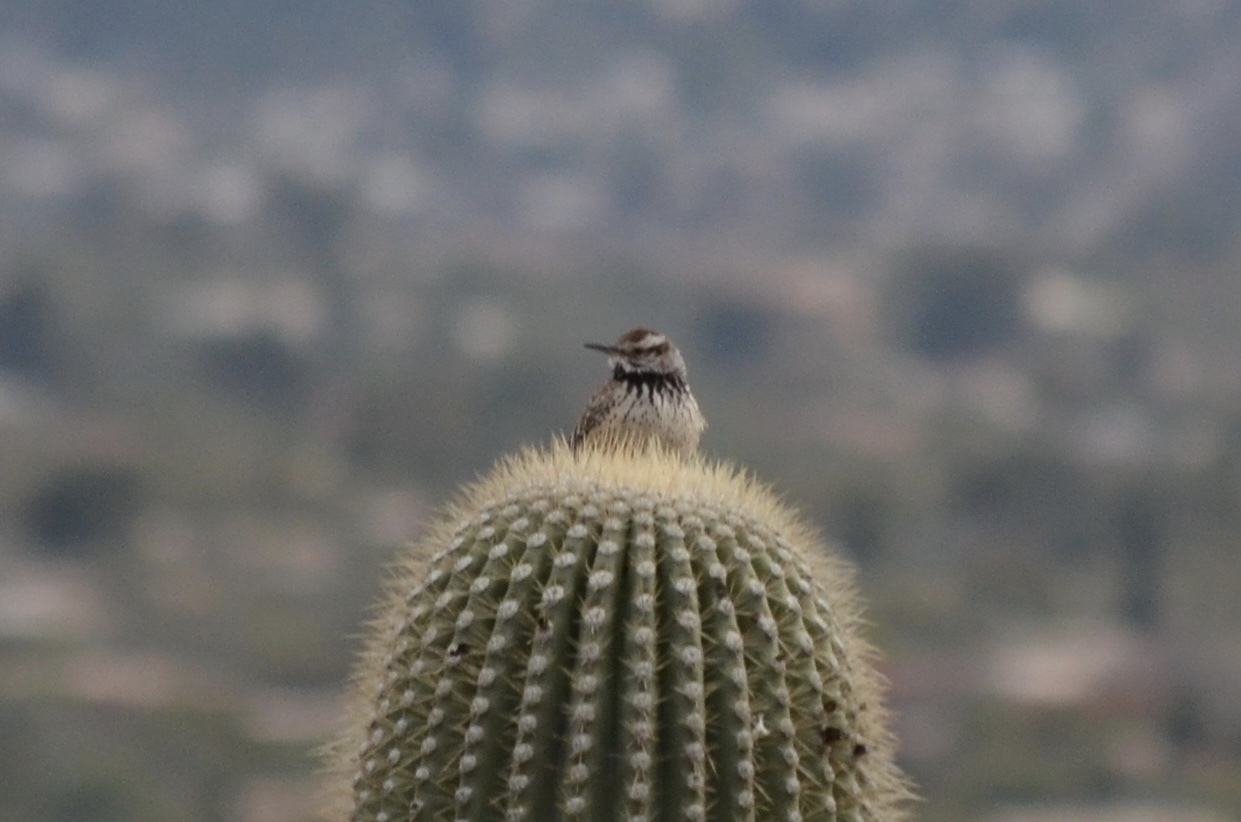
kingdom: Animalia
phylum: Chordata
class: Aves
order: Passeriformes
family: Troglodytidae
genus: Campylorhynchus
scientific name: Campylorhynchus brunneicapillus
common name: Cactus wren
